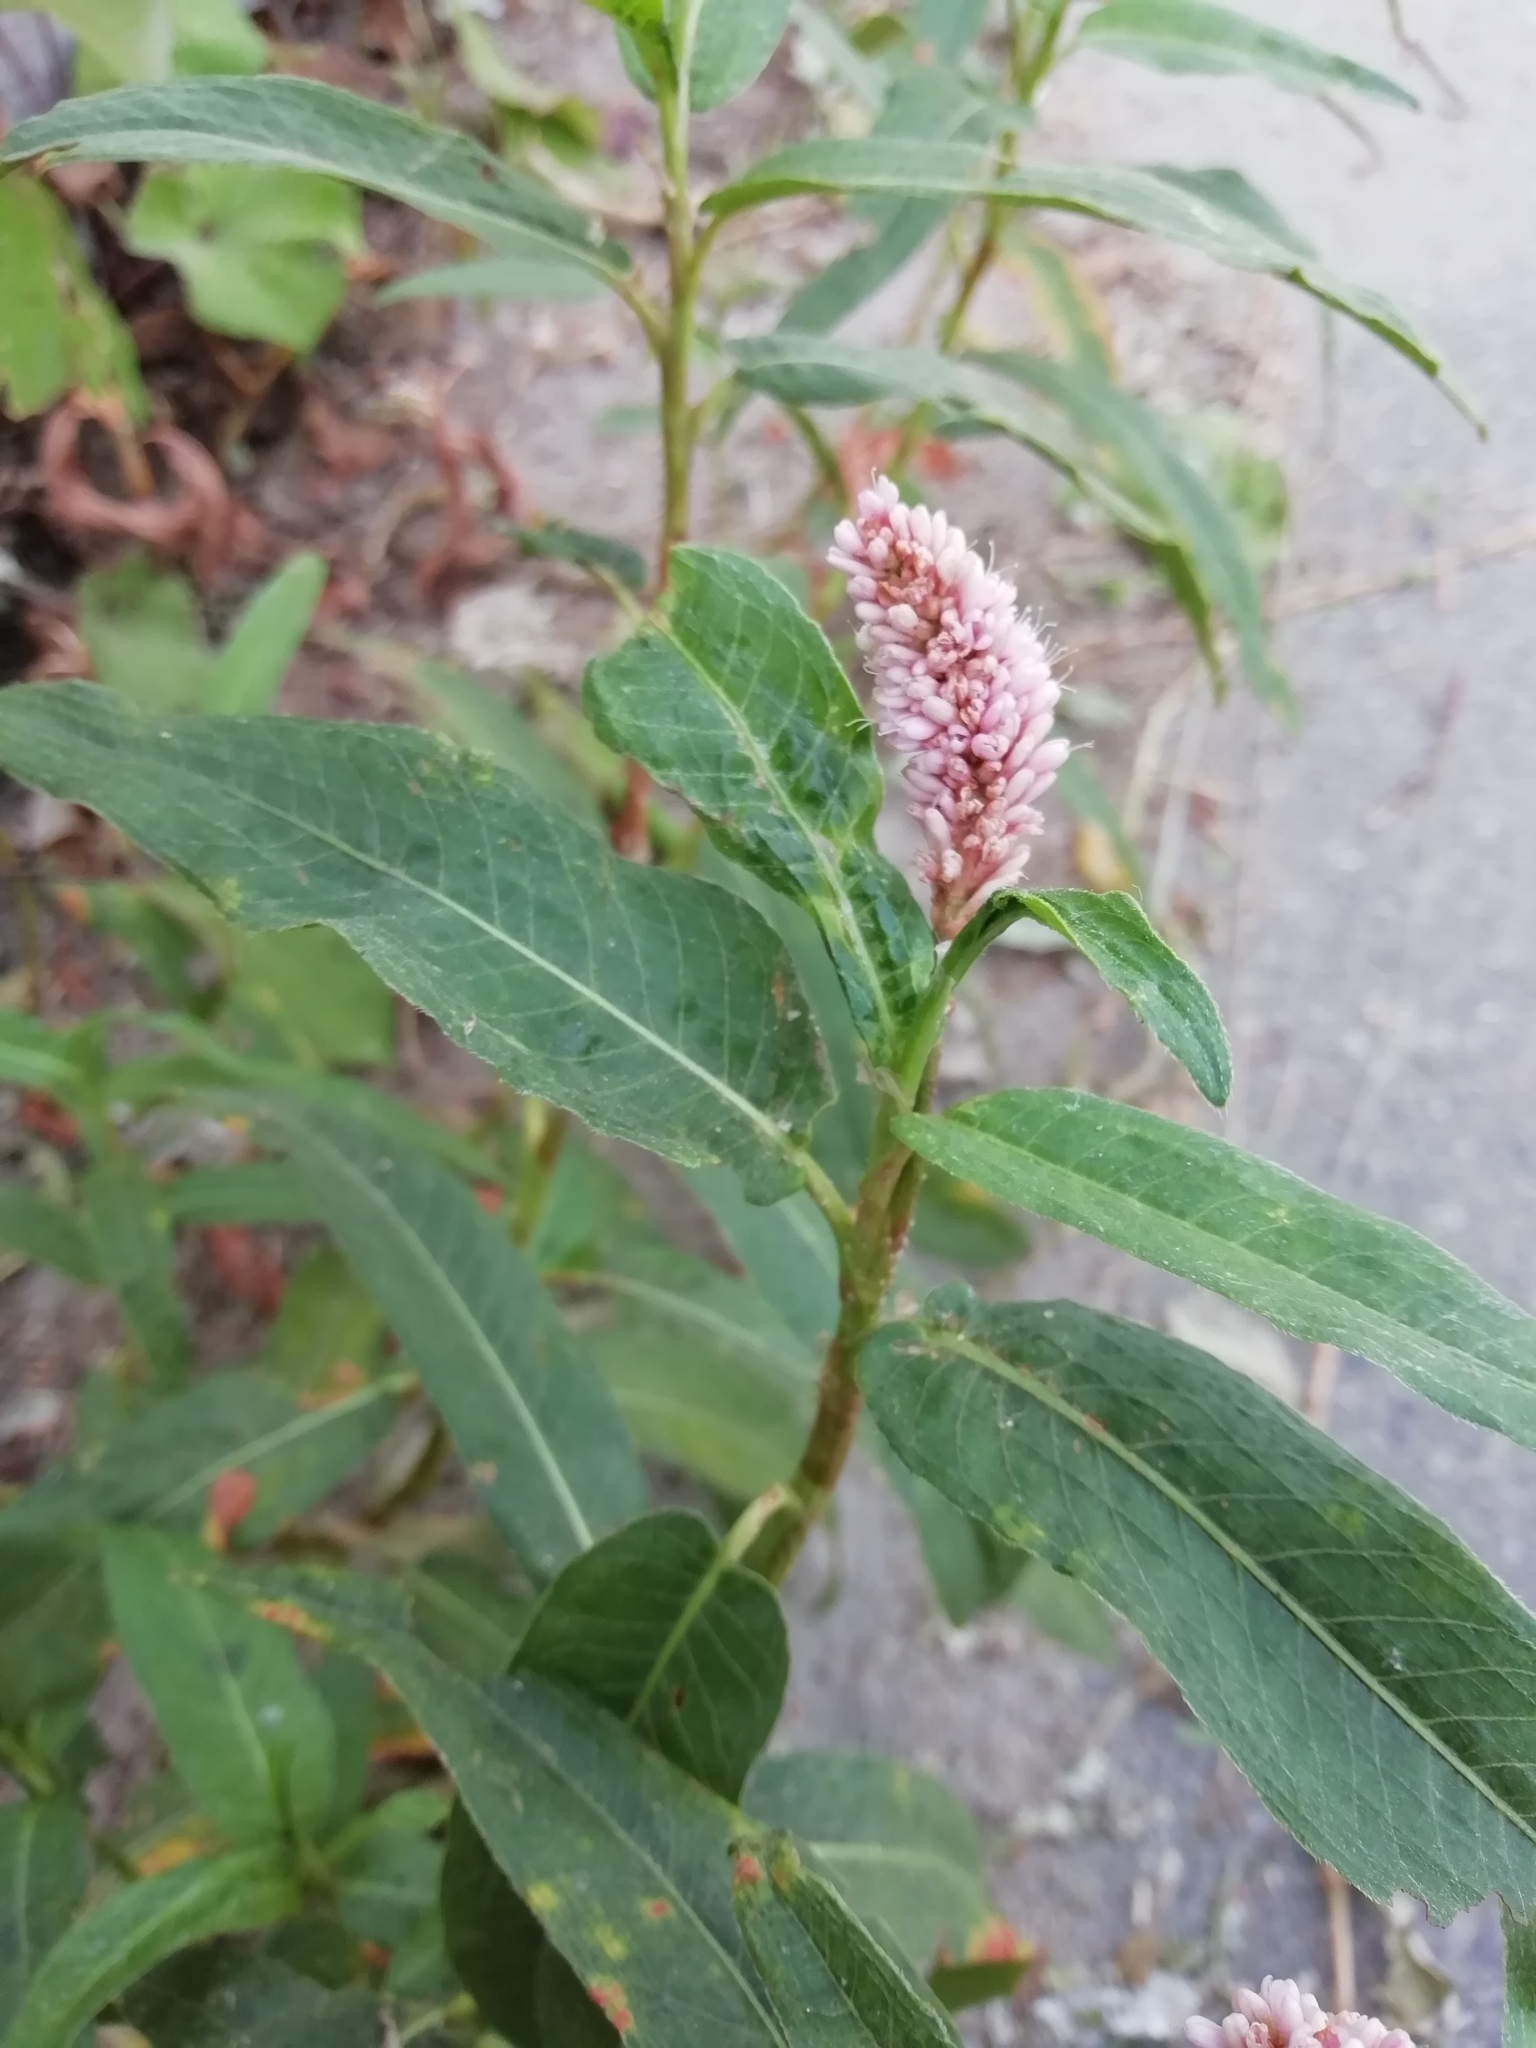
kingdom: Plantae
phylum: Tracheophyta
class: Magnoliopsida
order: Caryophyllales
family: Polygonaceae
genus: Persicaria
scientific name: Persicaria amphibia
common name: Amphibious bistort
